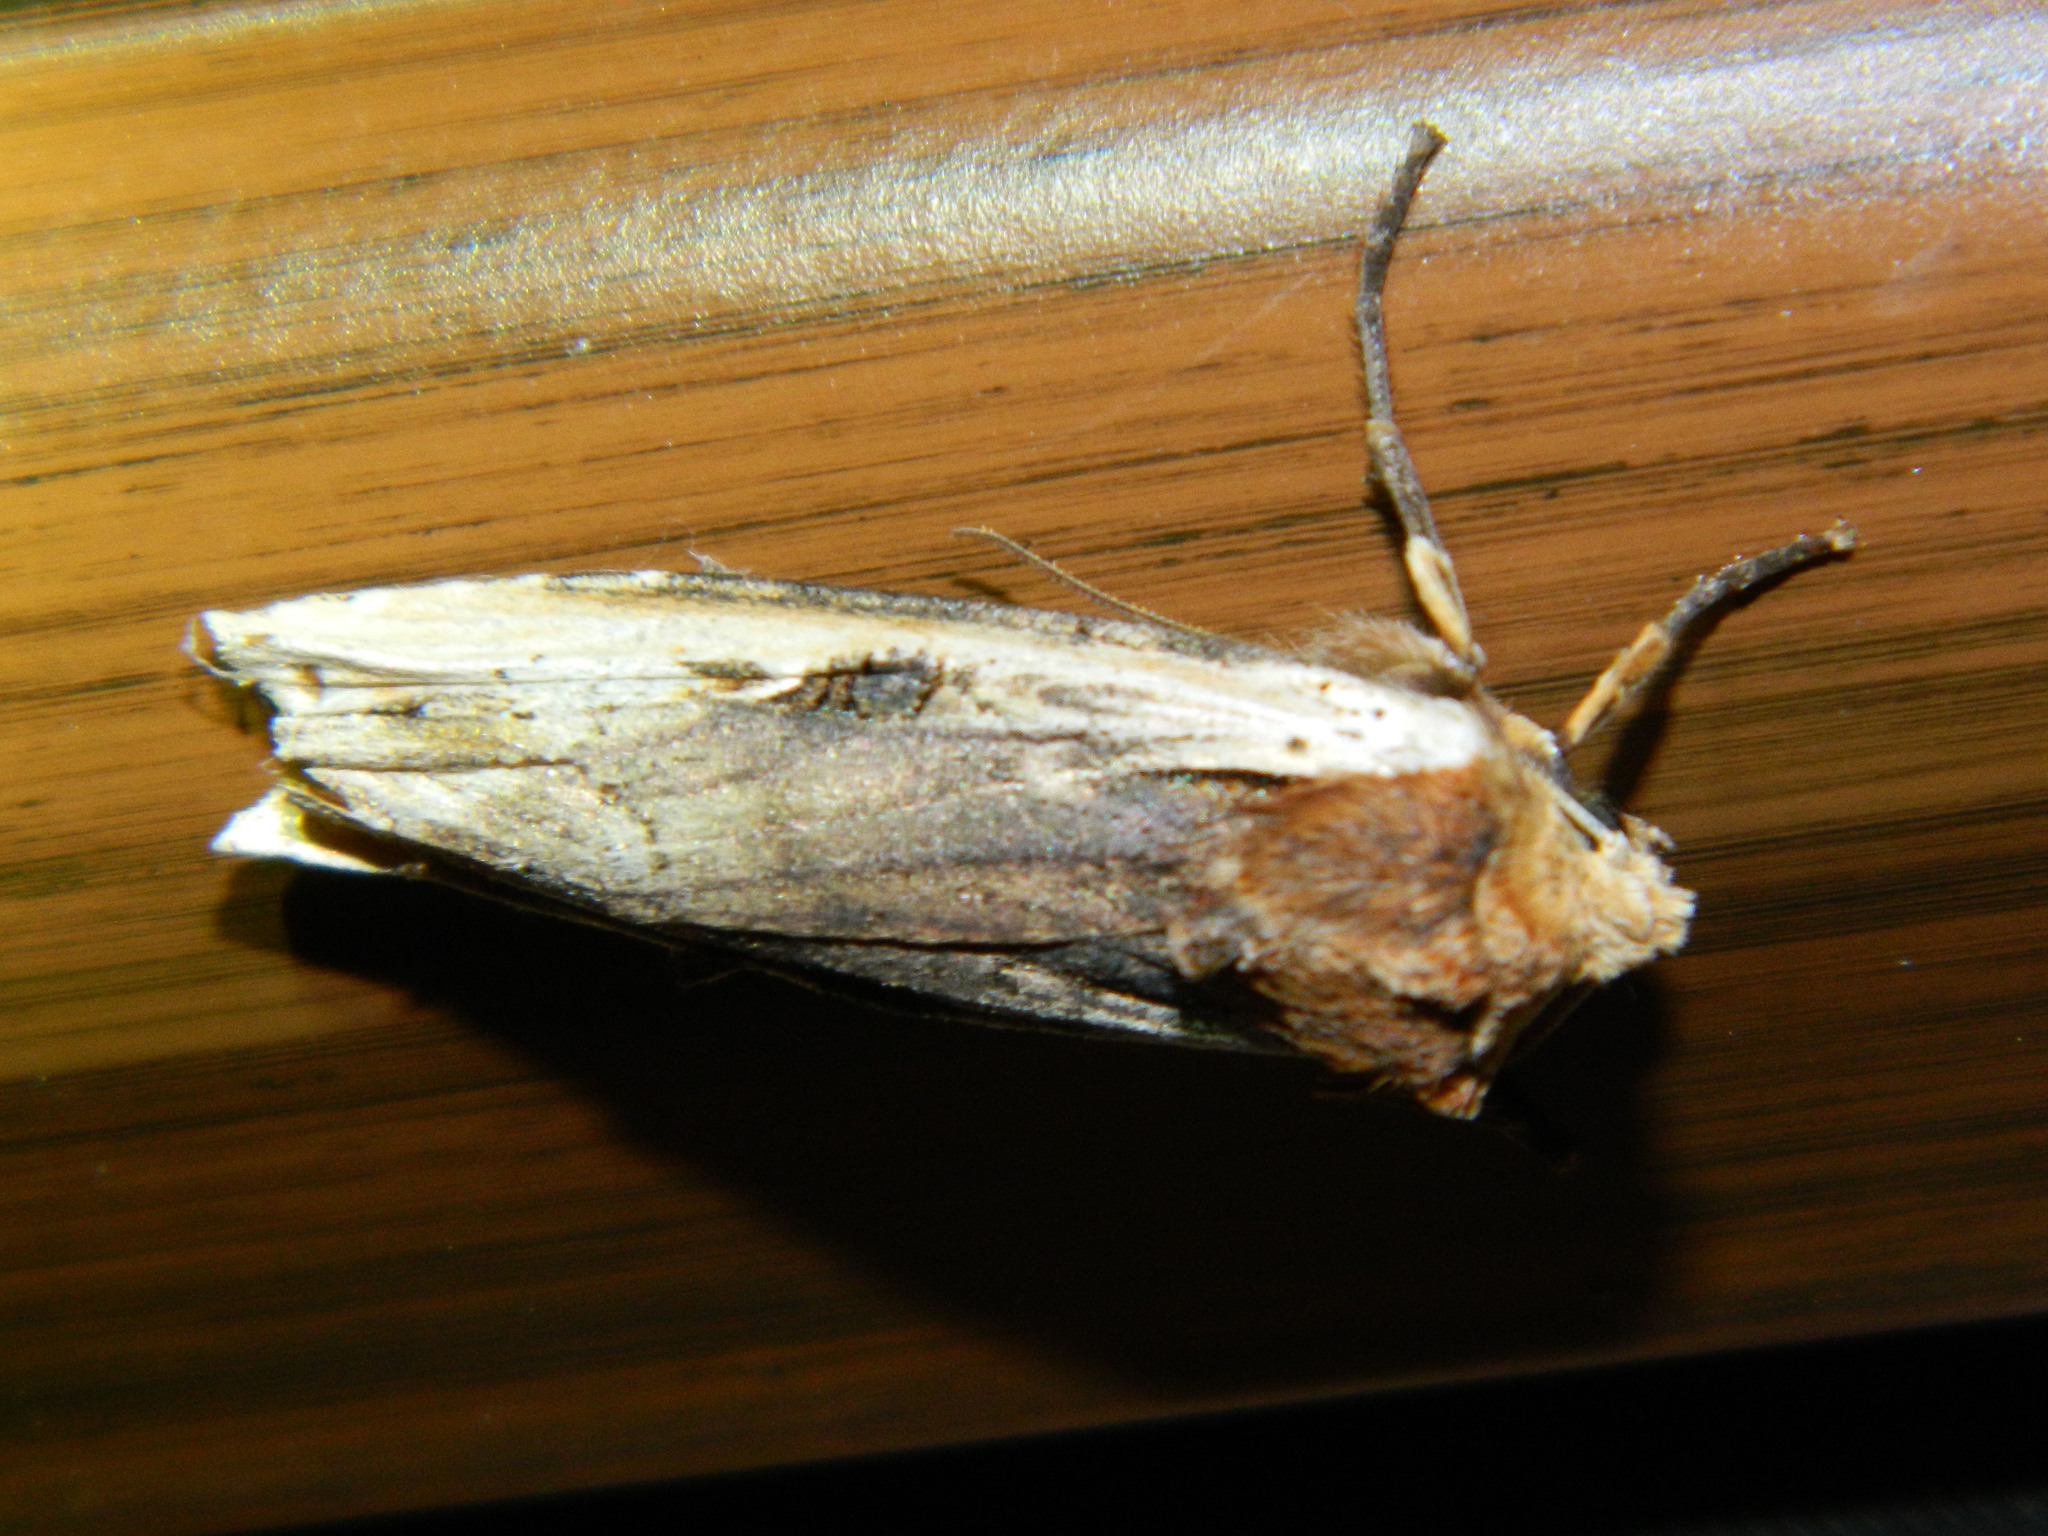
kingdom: Animalia
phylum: Arthropoda
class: Insecta
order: Lepidoptera
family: Noctuidae
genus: Xylena
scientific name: Xylena curvimacula
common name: Dot-and-dash swordgrass moth
